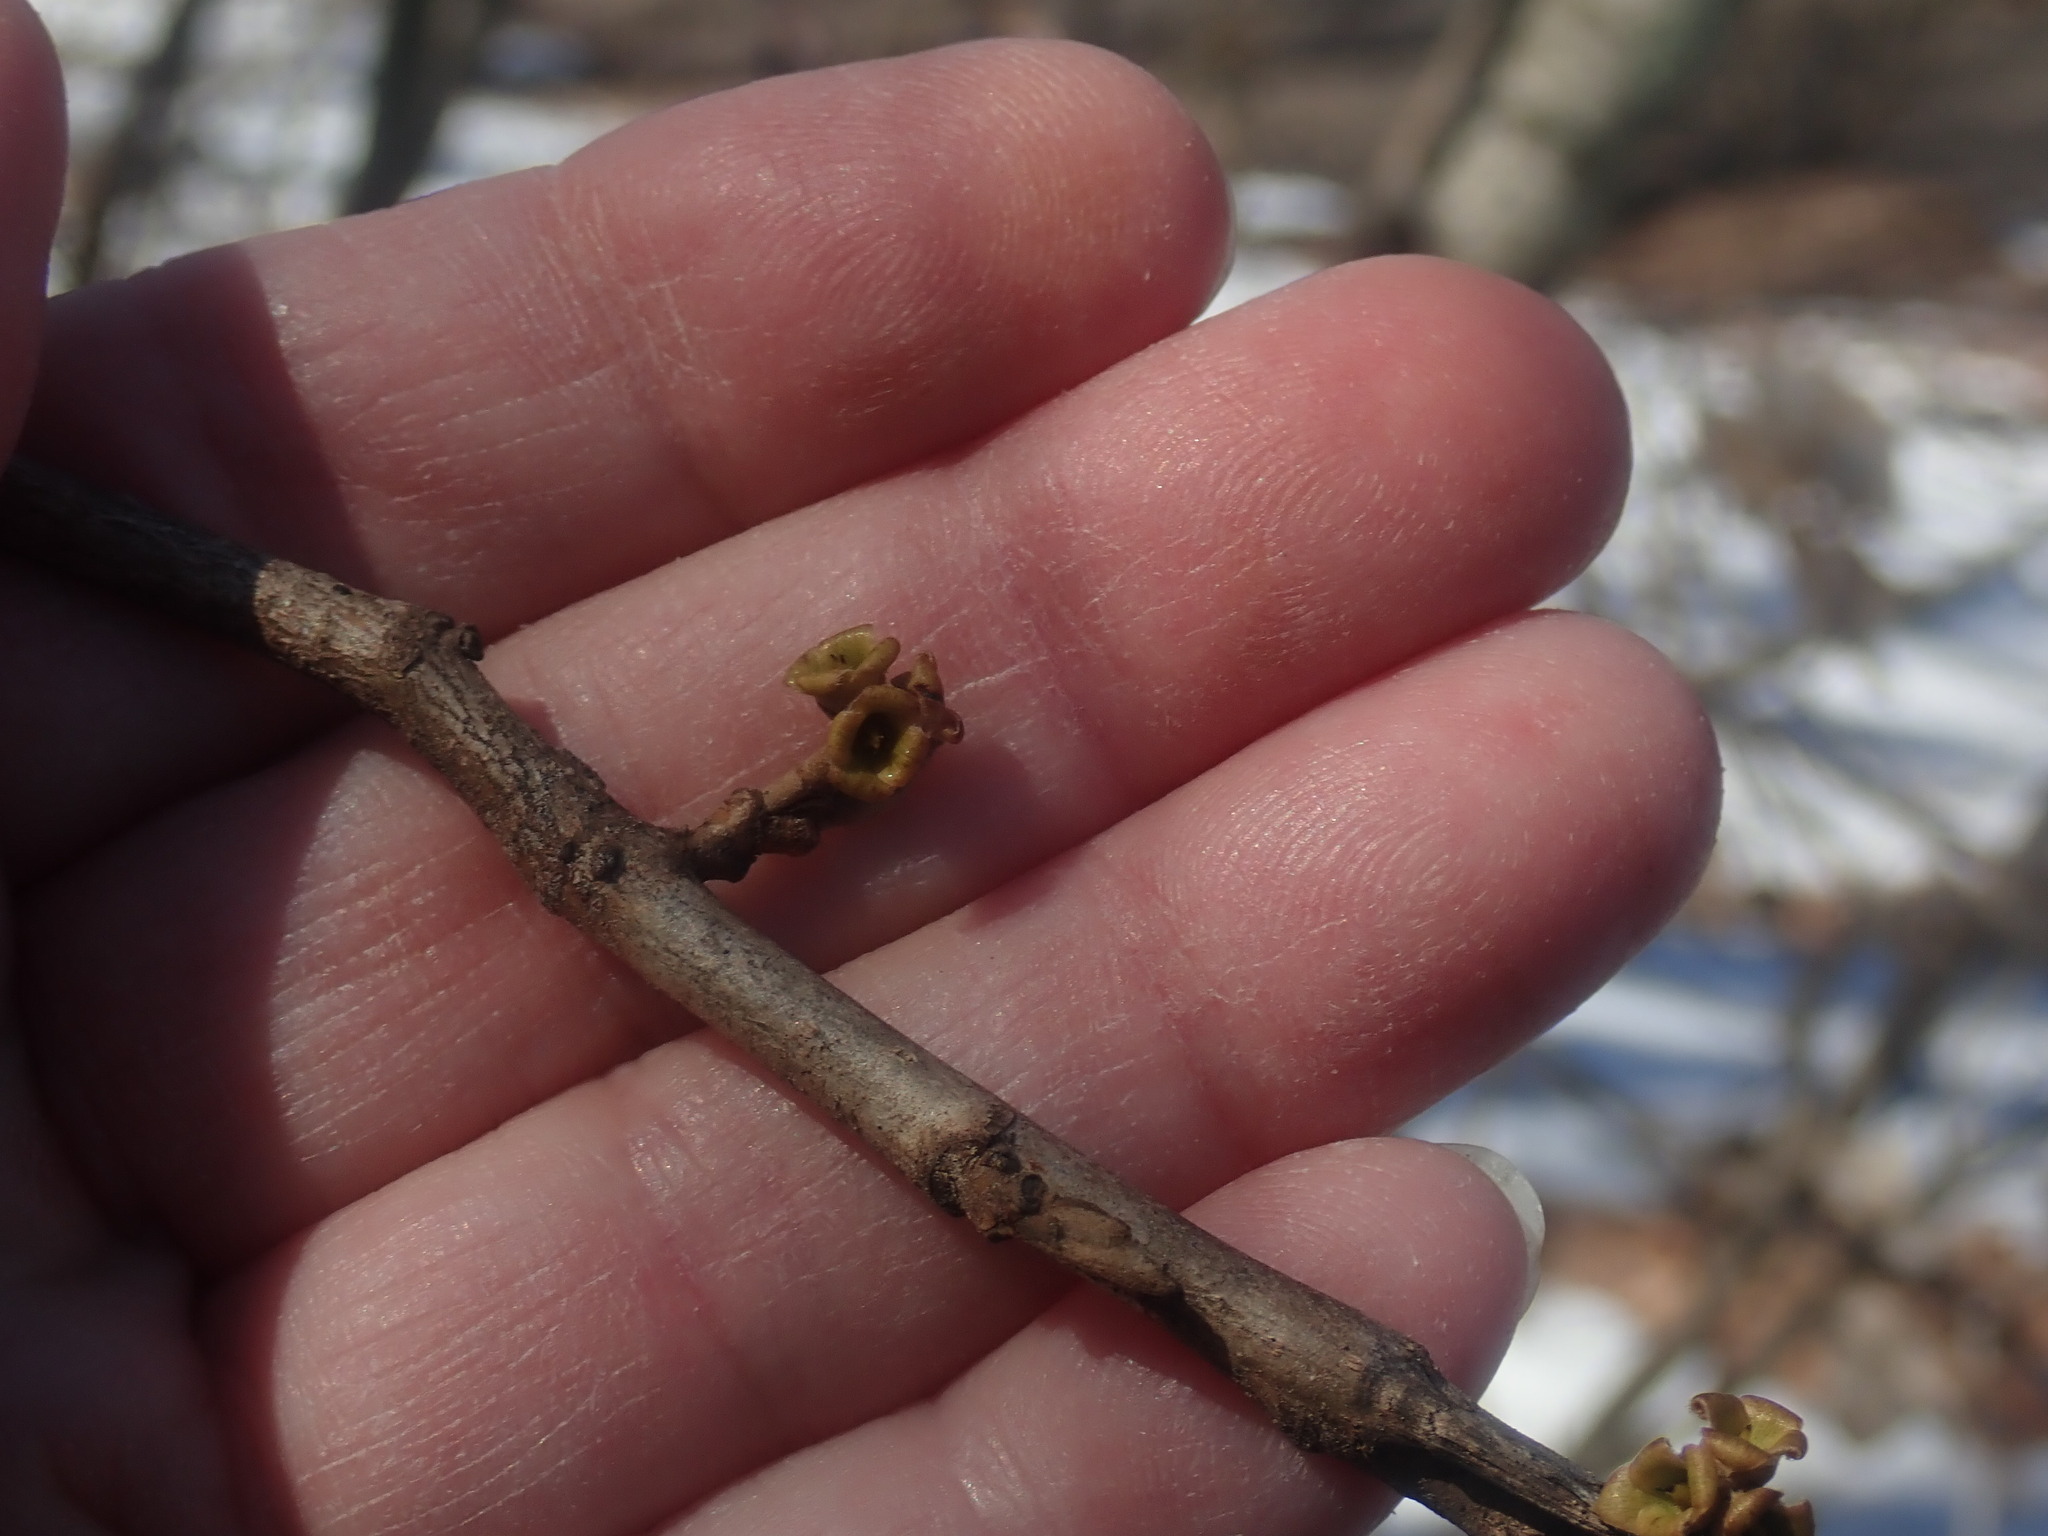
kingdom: Plantae
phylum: Tracheophyta
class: Magnoliopsida
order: Saxifragales
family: Hamamelidaceae
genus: Hamamelis
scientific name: Hamamelis virginiana
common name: Witch-hazel
